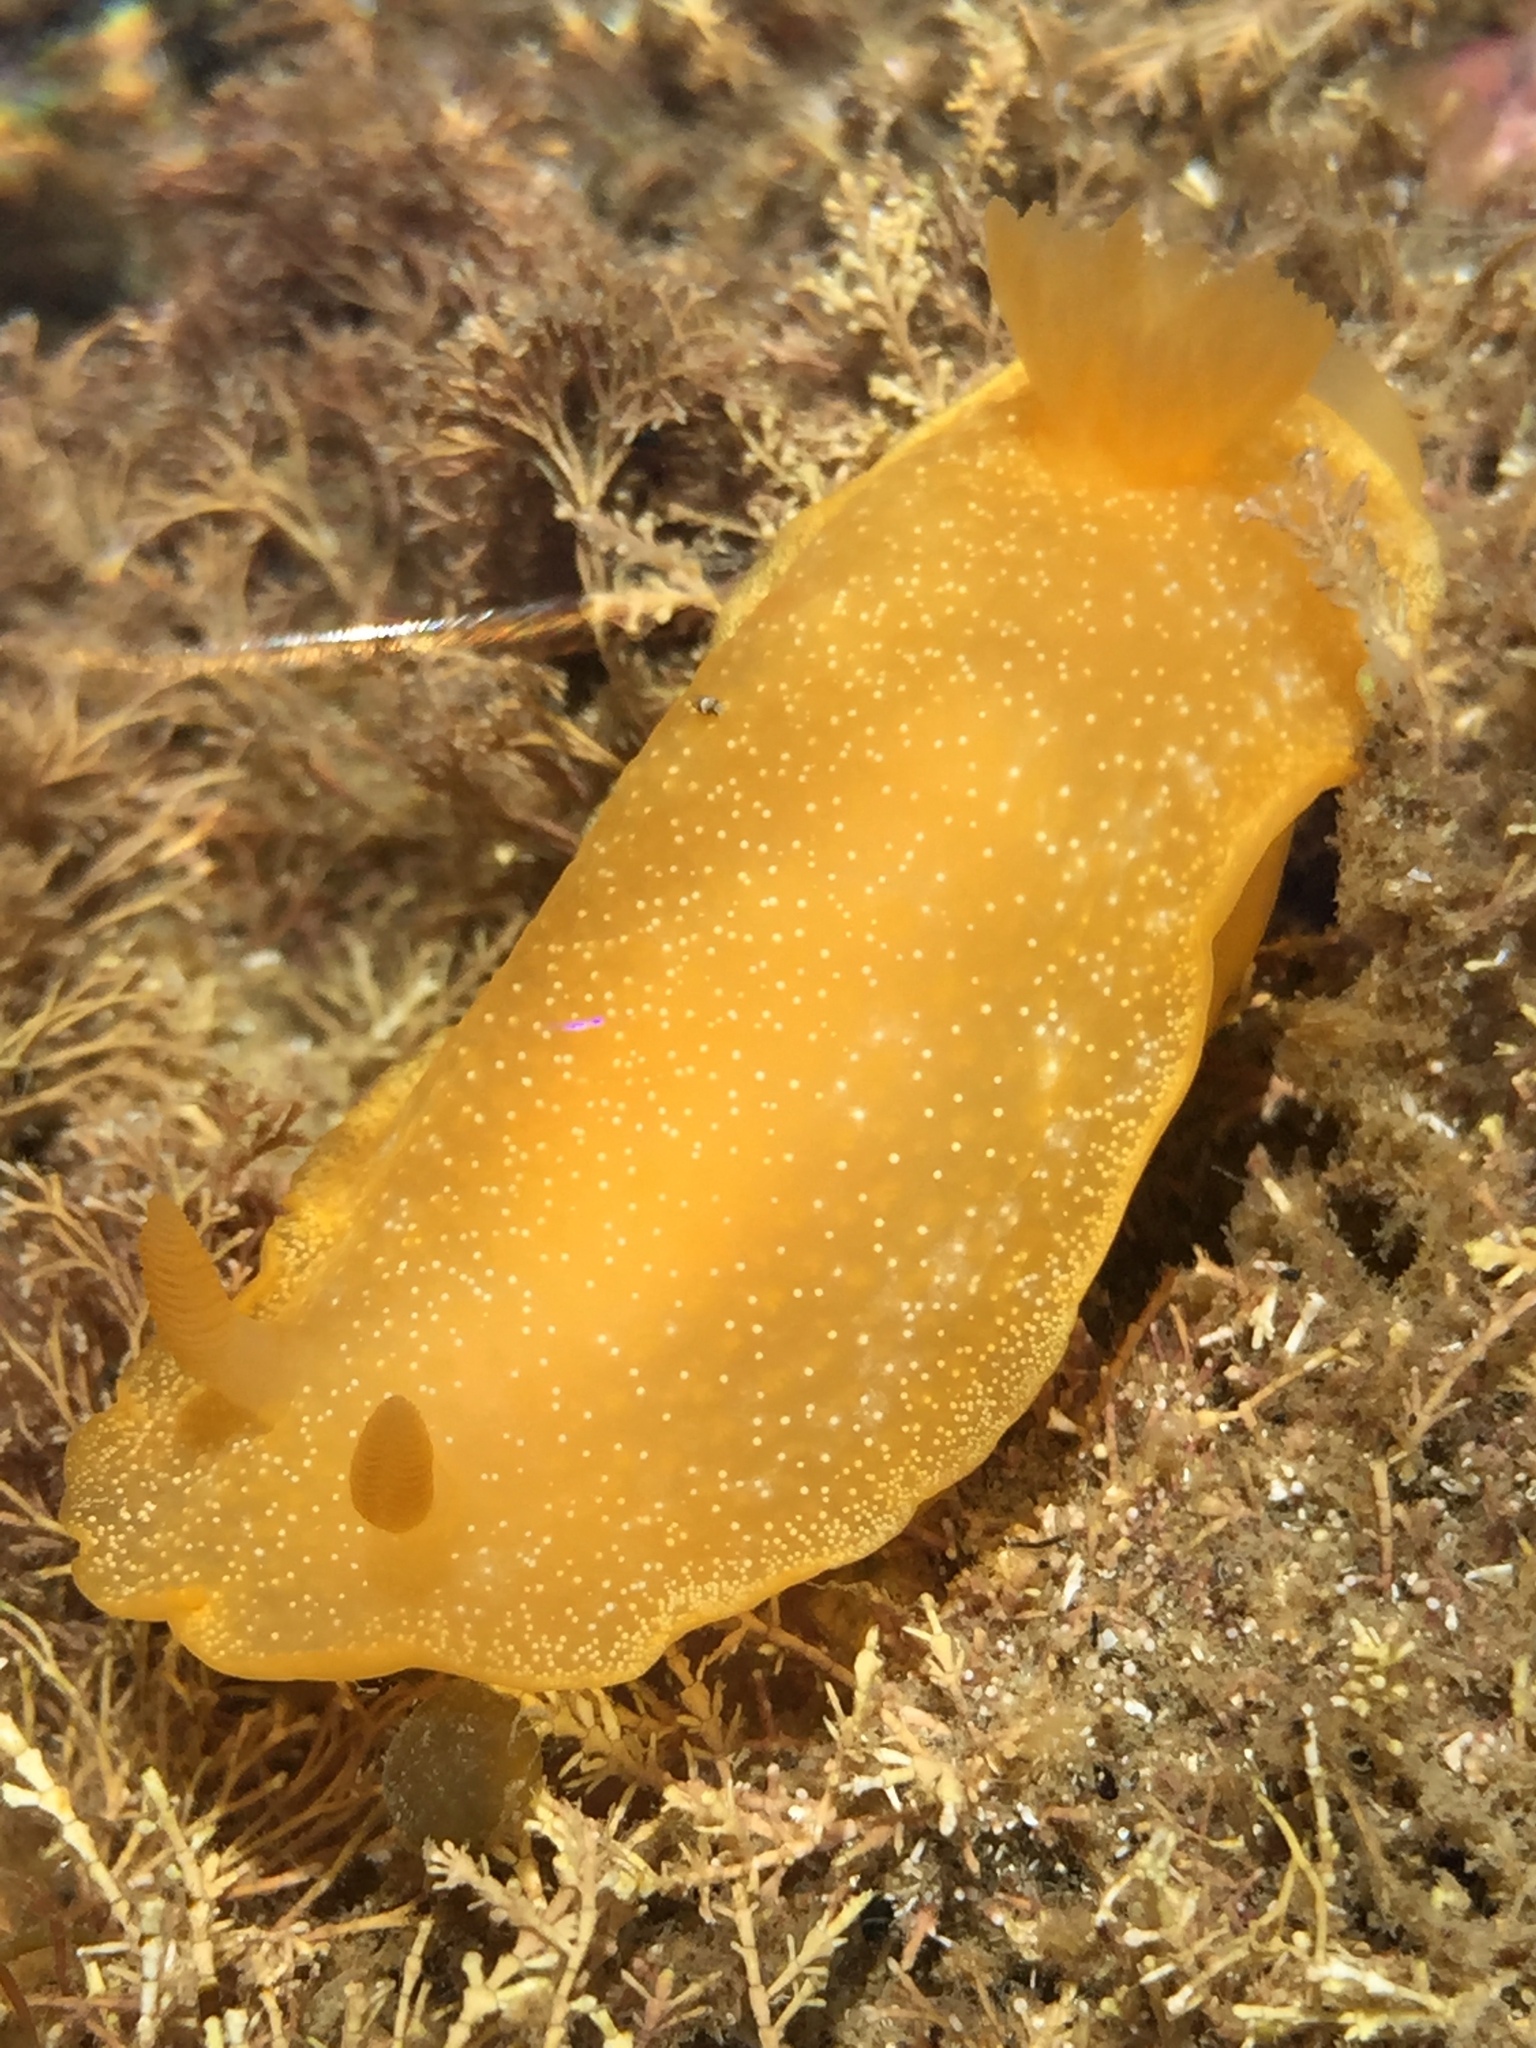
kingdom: Animalia
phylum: Mollusca
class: Gastropoda
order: Nudibranchia
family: Dendrodorididae
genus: Dendrodoris
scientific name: Dendrodoris citrina
